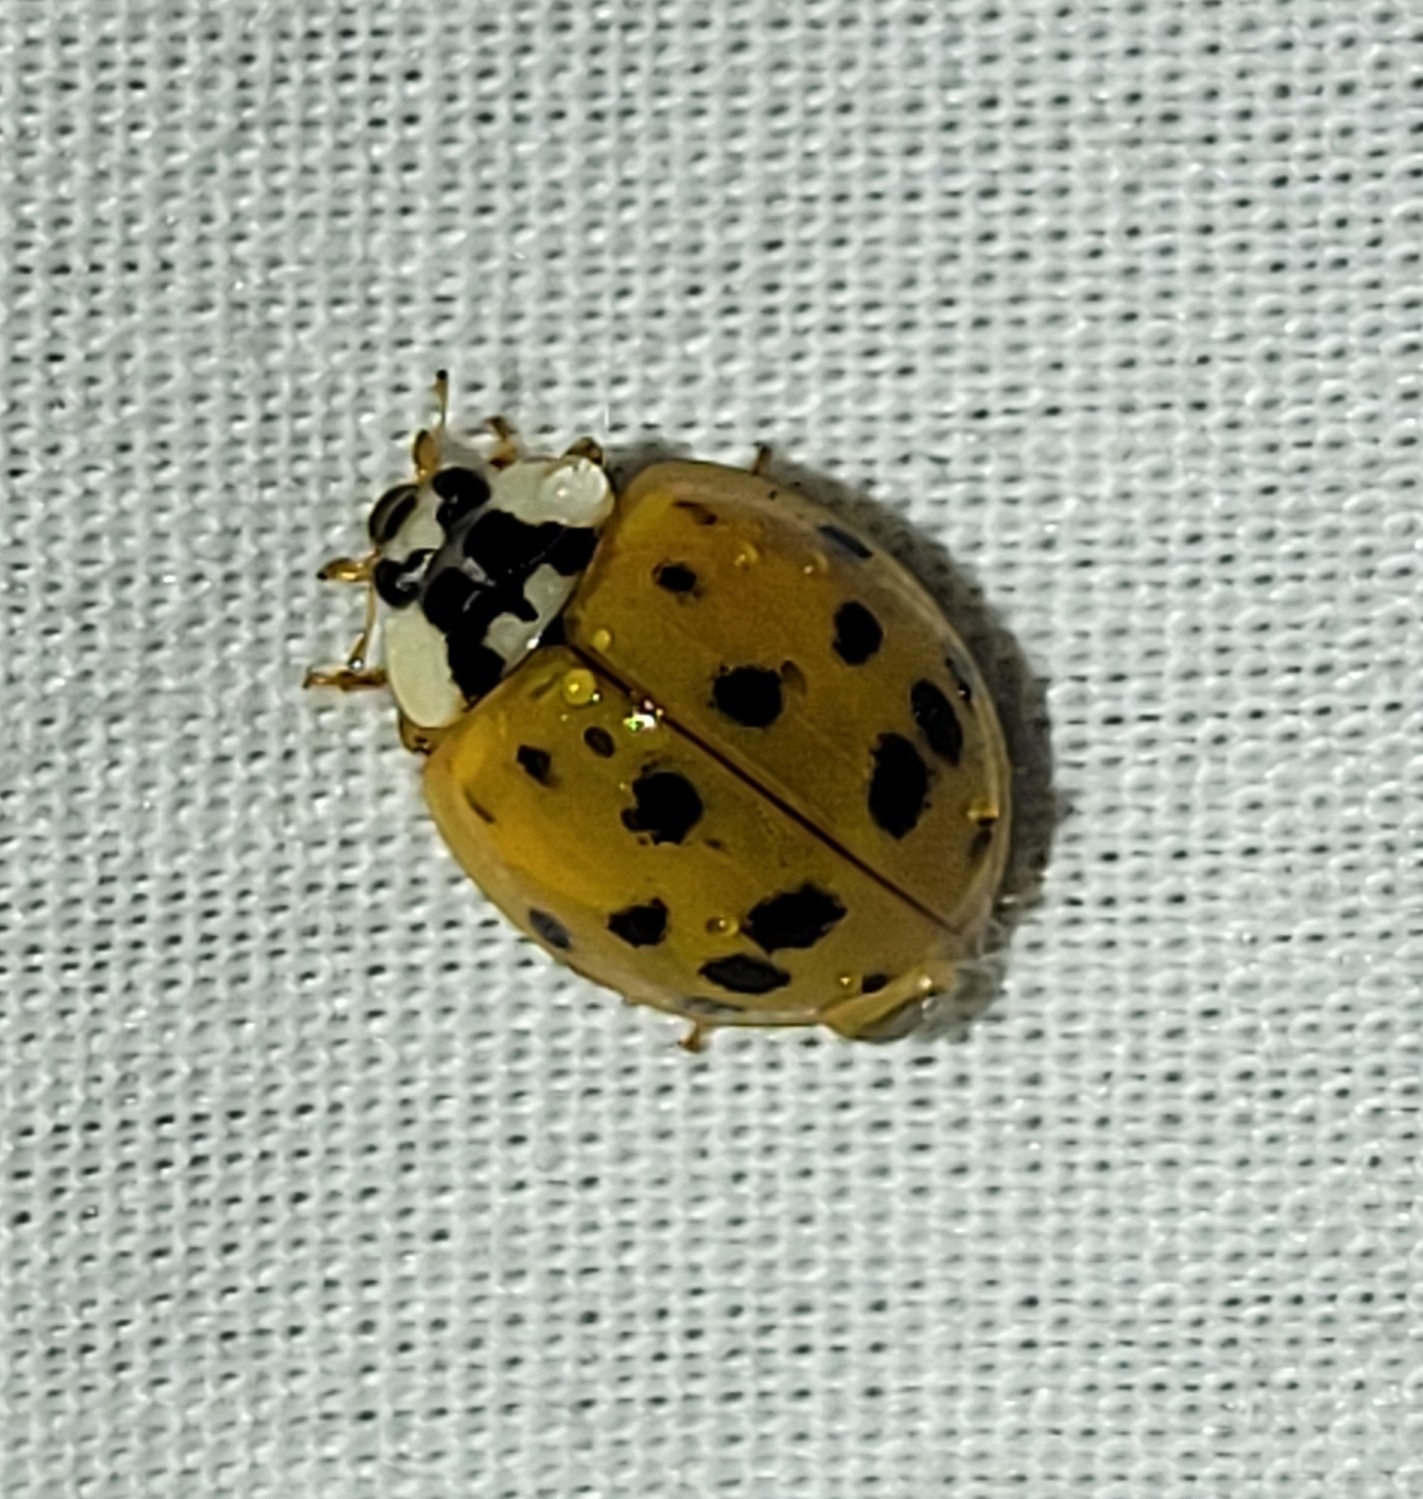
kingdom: Animalia
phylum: Arthropoda
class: Insecta
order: Coleoptera
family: Coccinellidae
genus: Harmonia
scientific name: Harmonia axyridis
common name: Harlequin ladybird
